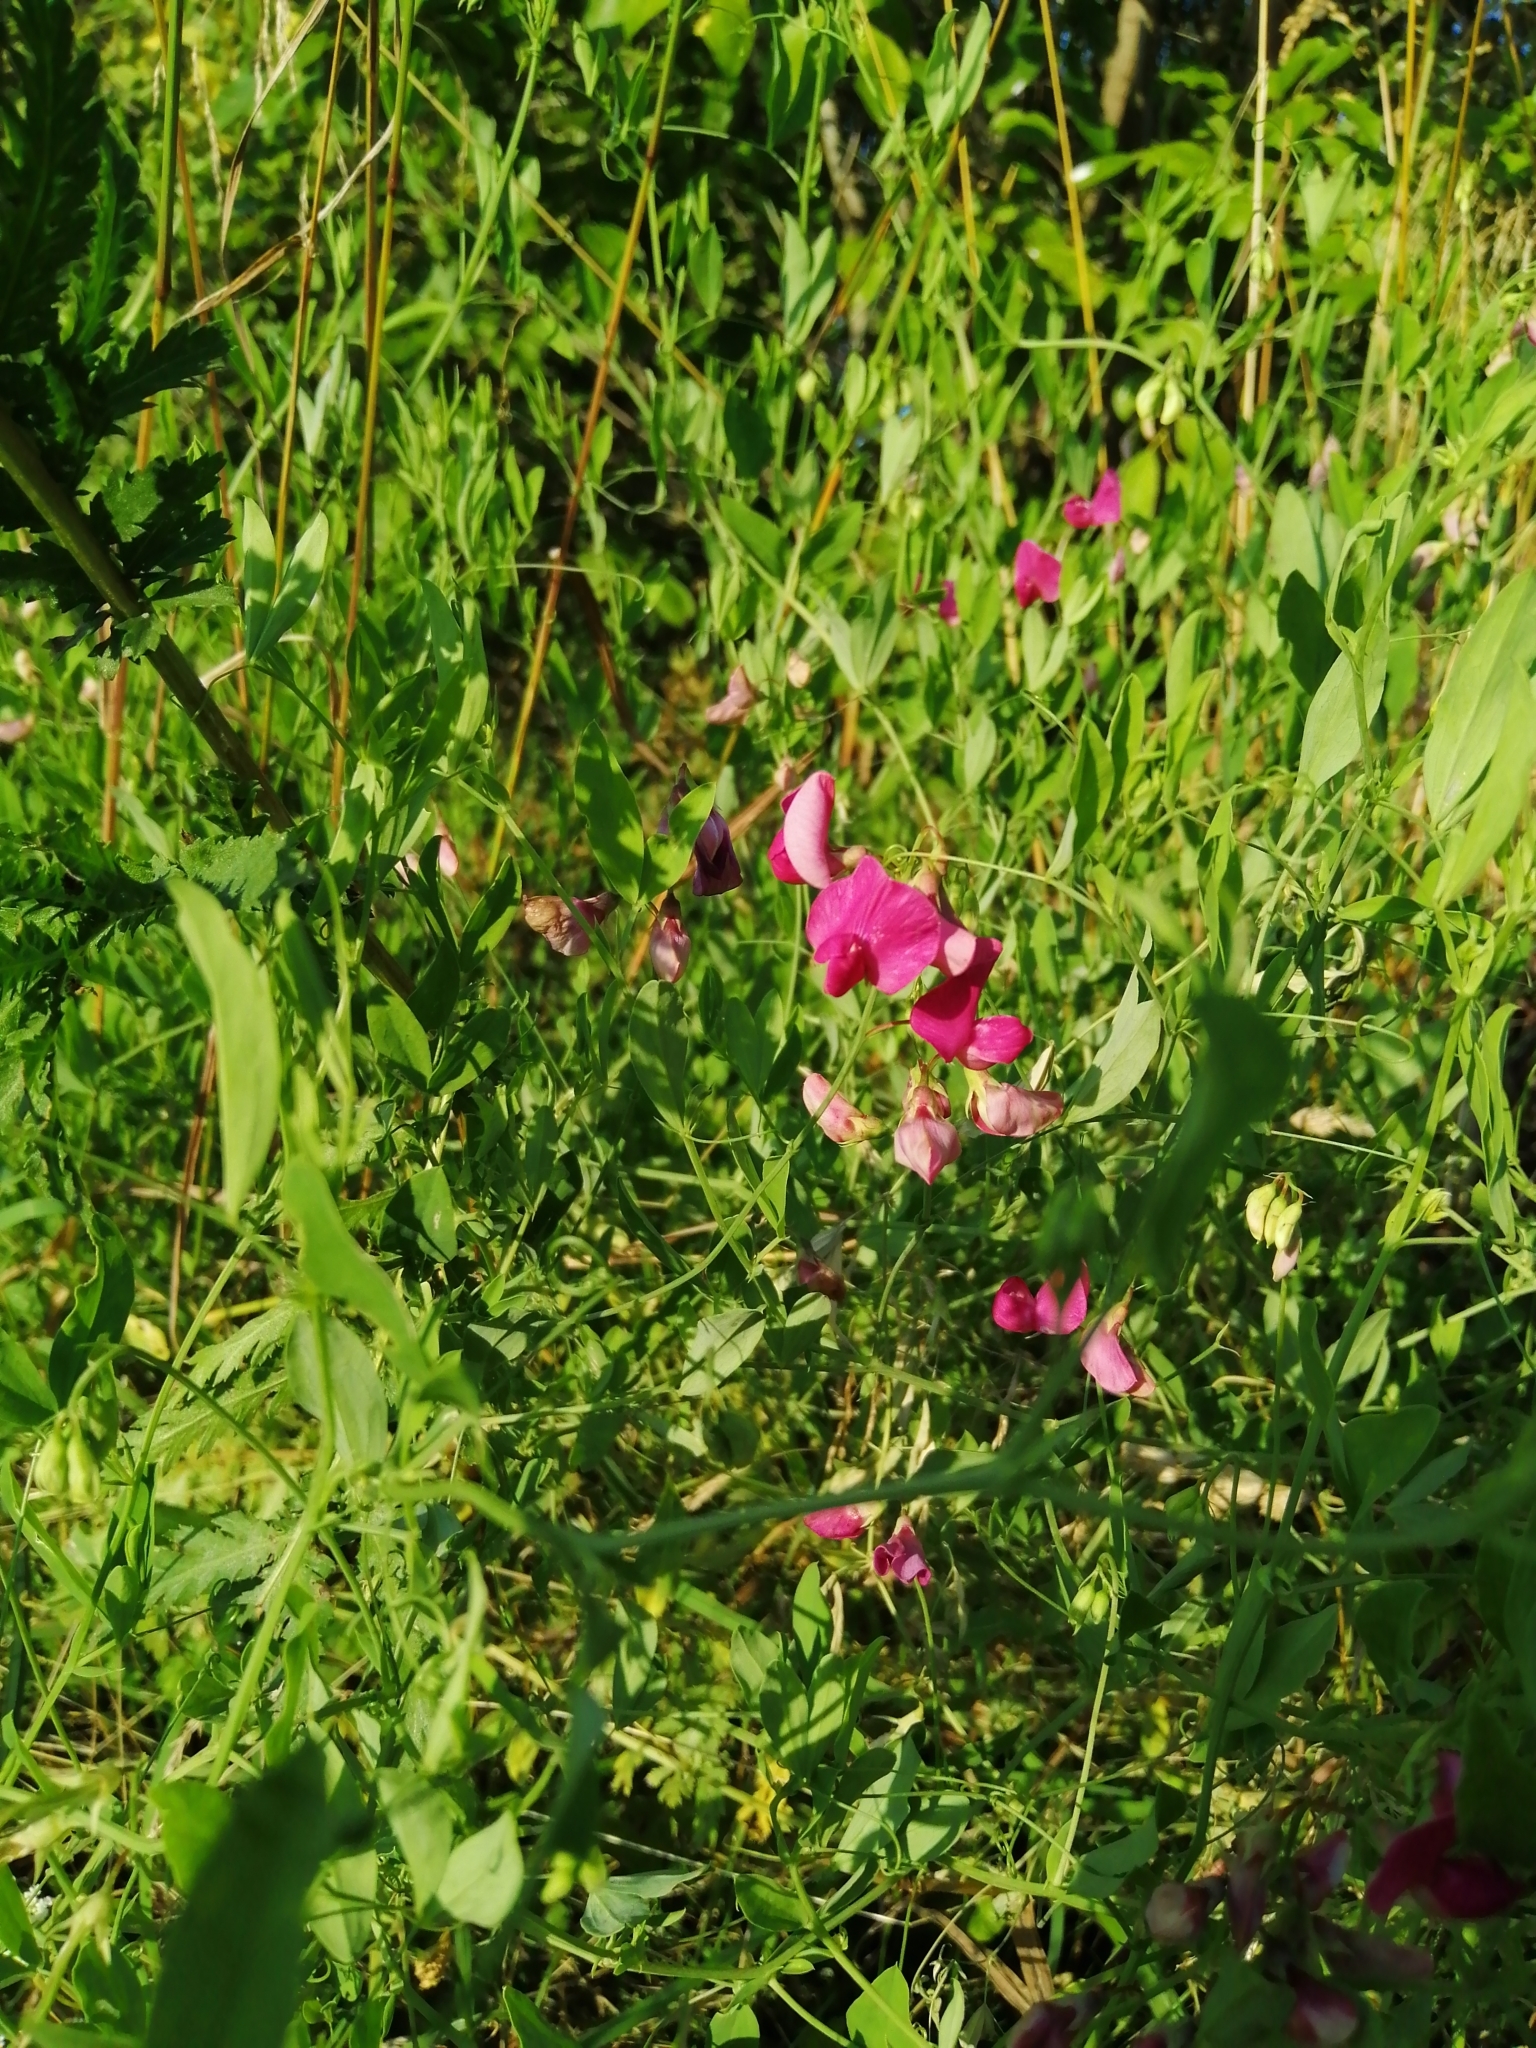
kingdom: Plantae
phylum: Tracheophyta
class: Magnoliopsida
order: Fabales
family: Fabaceae
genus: Lathyrus
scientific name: Lathyrus tuberosus
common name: Tuberous pea
